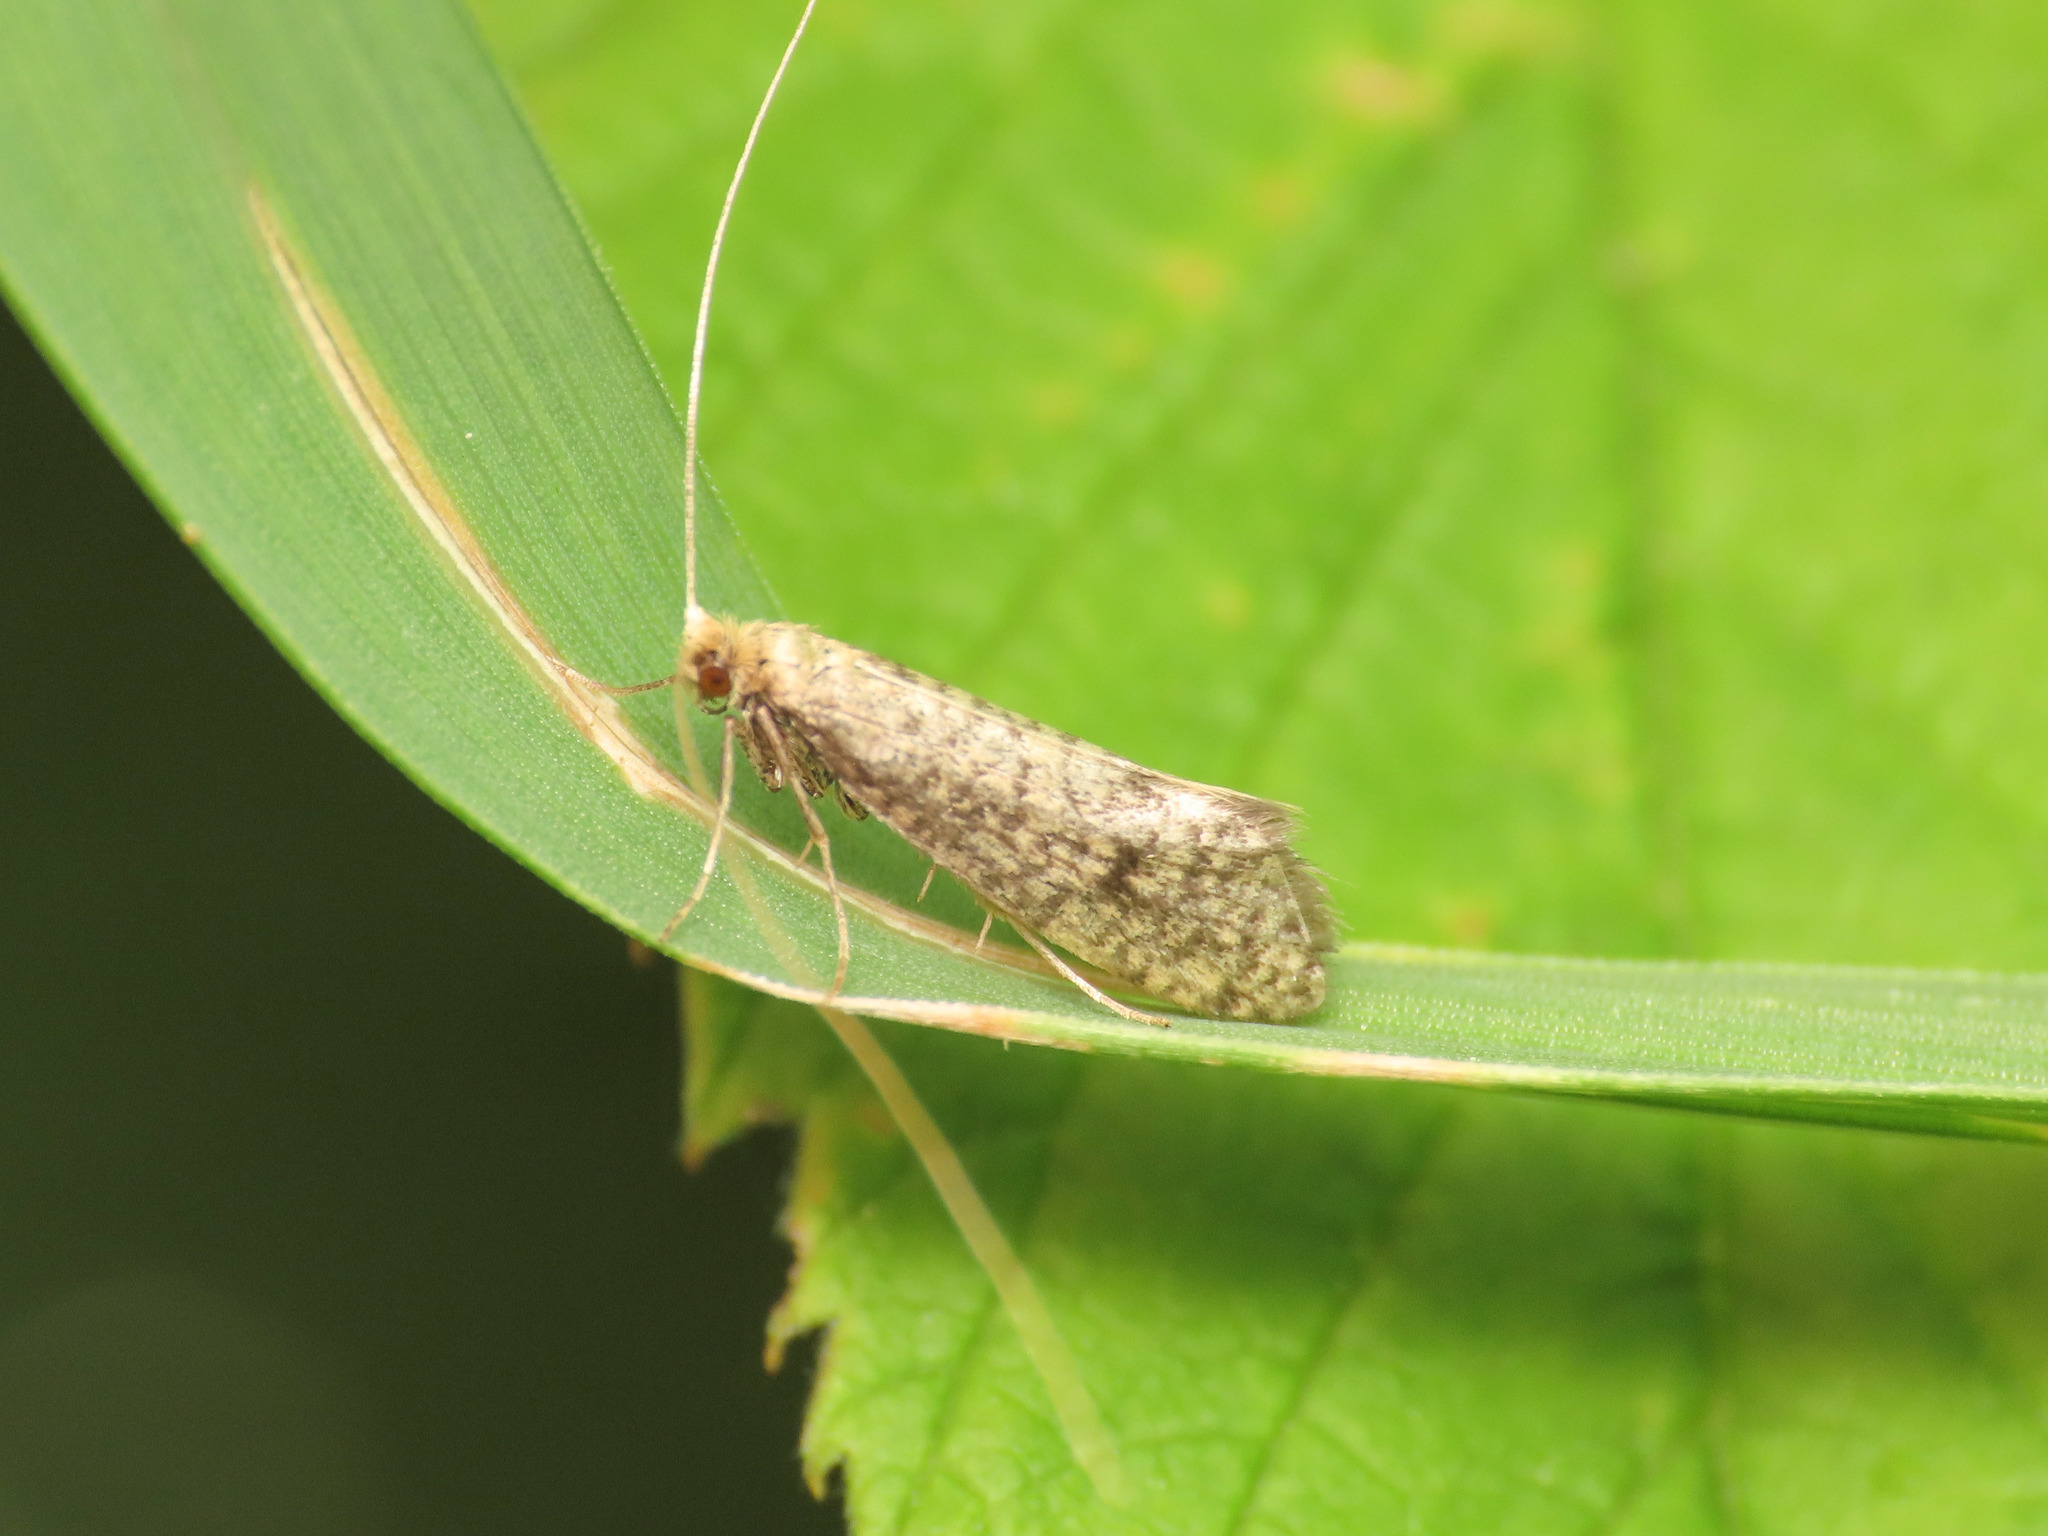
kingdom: Animalia
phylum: Arthropoda
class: Insecta
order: Lepidoptera
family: Adelidae
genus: Nematopogon
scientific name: Nematopogon robertella
